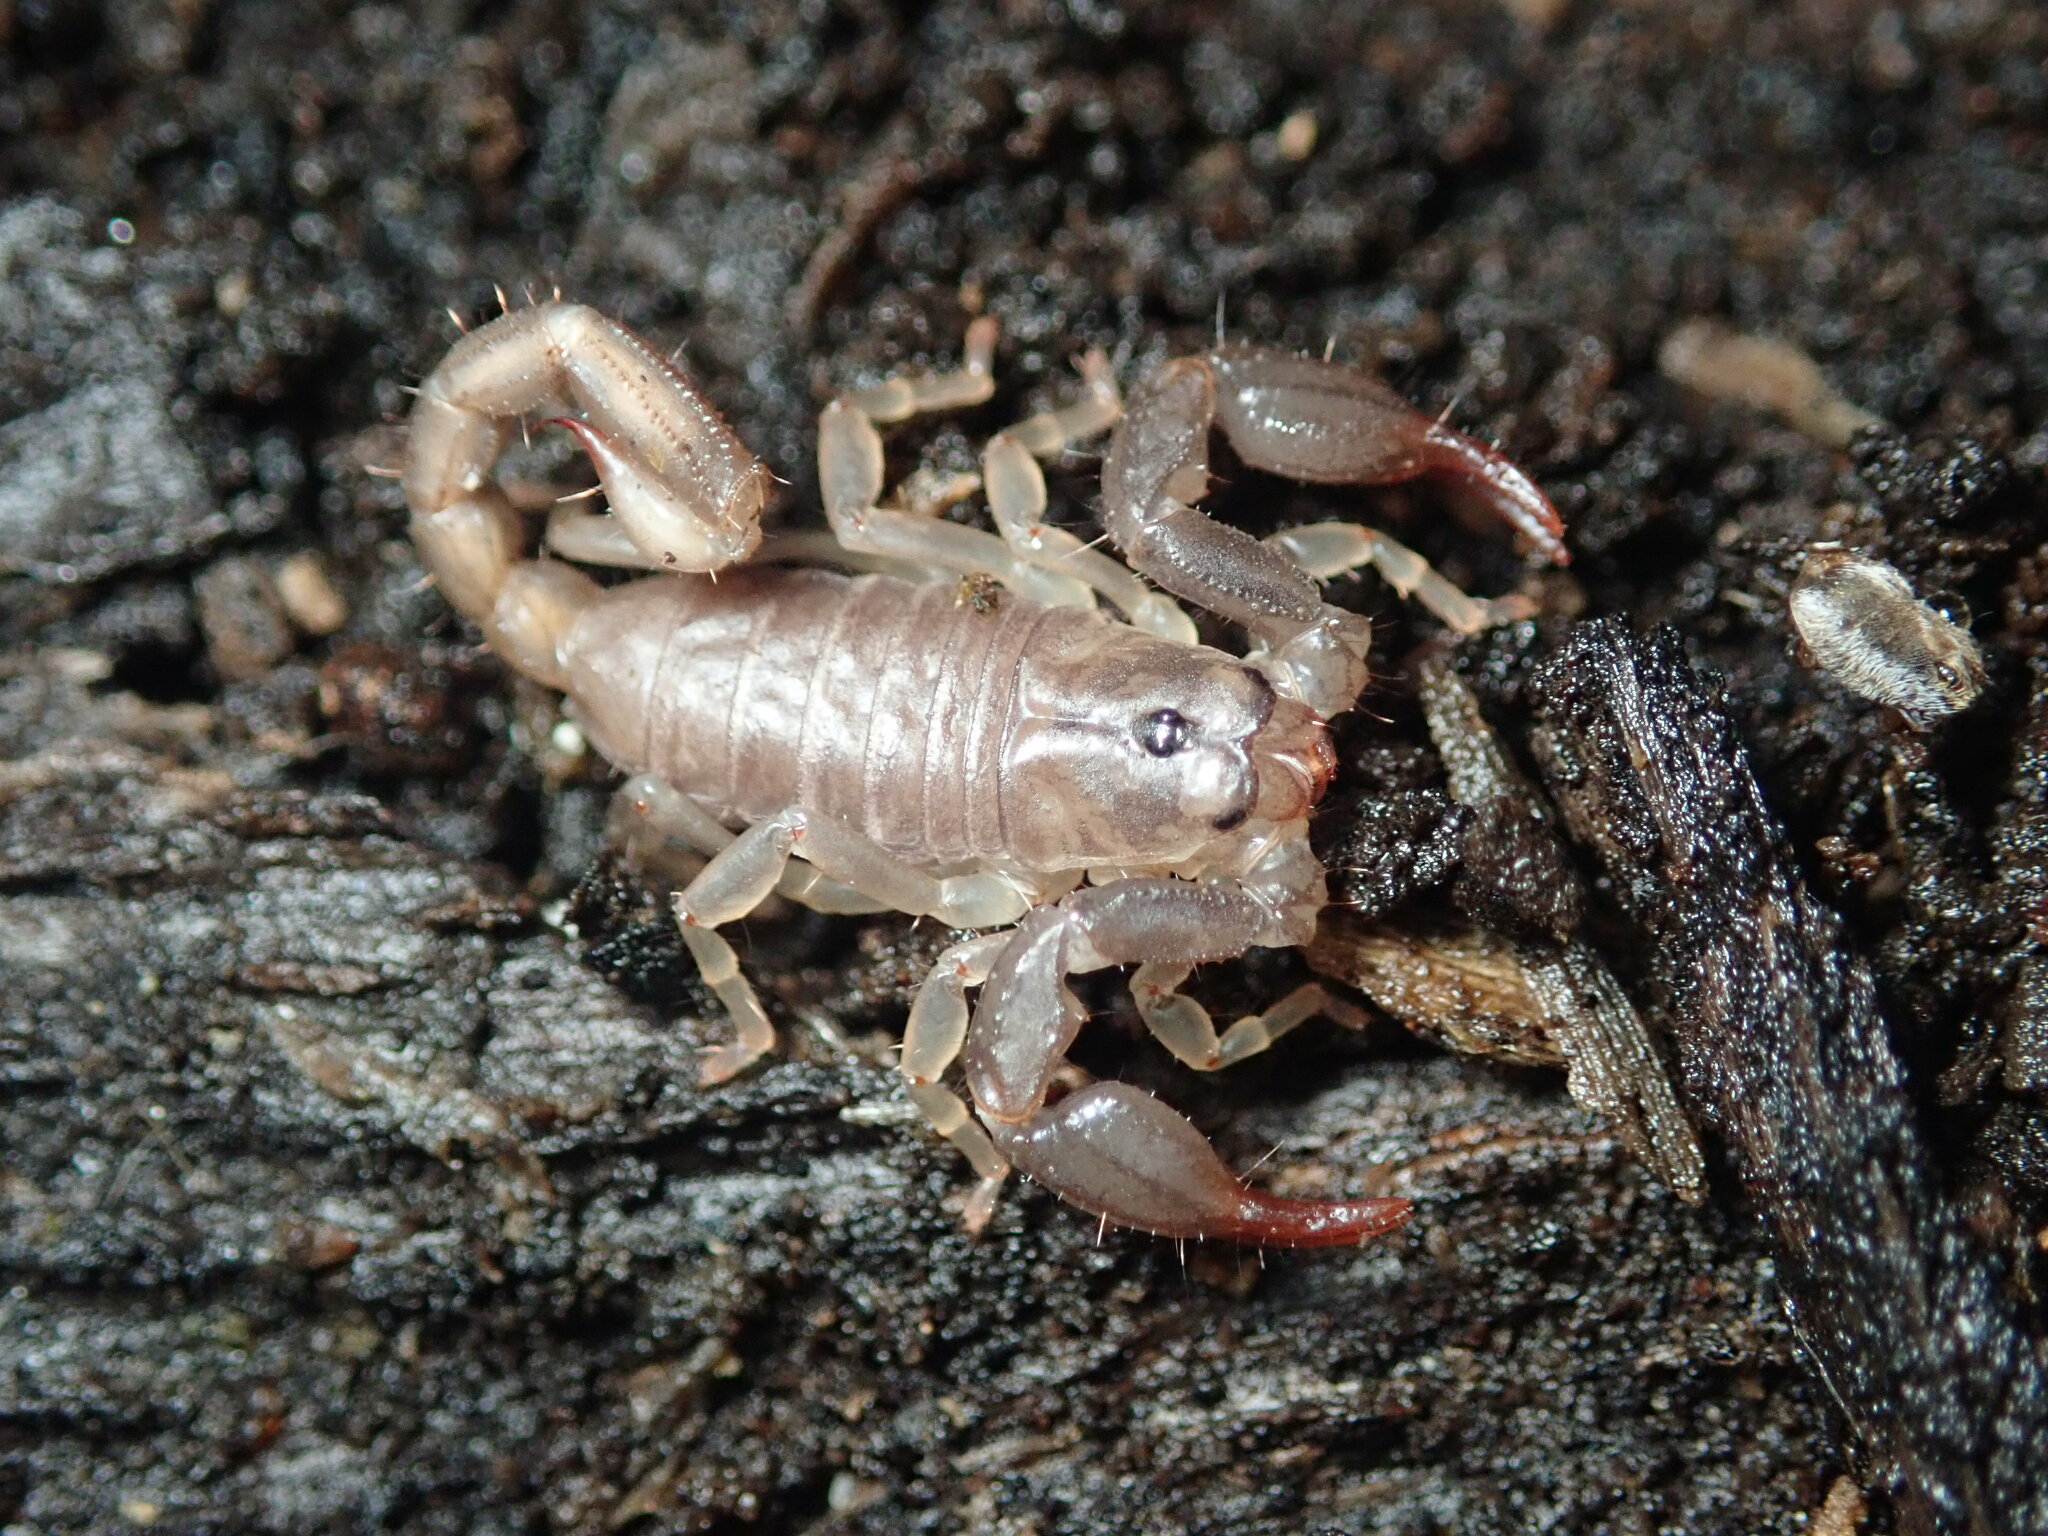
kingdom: Animalia
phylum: Arthropoda
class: Arachnida
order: Scorpiones
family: Chactidae
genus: Uroctonus
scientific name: Uroctonus mordax
